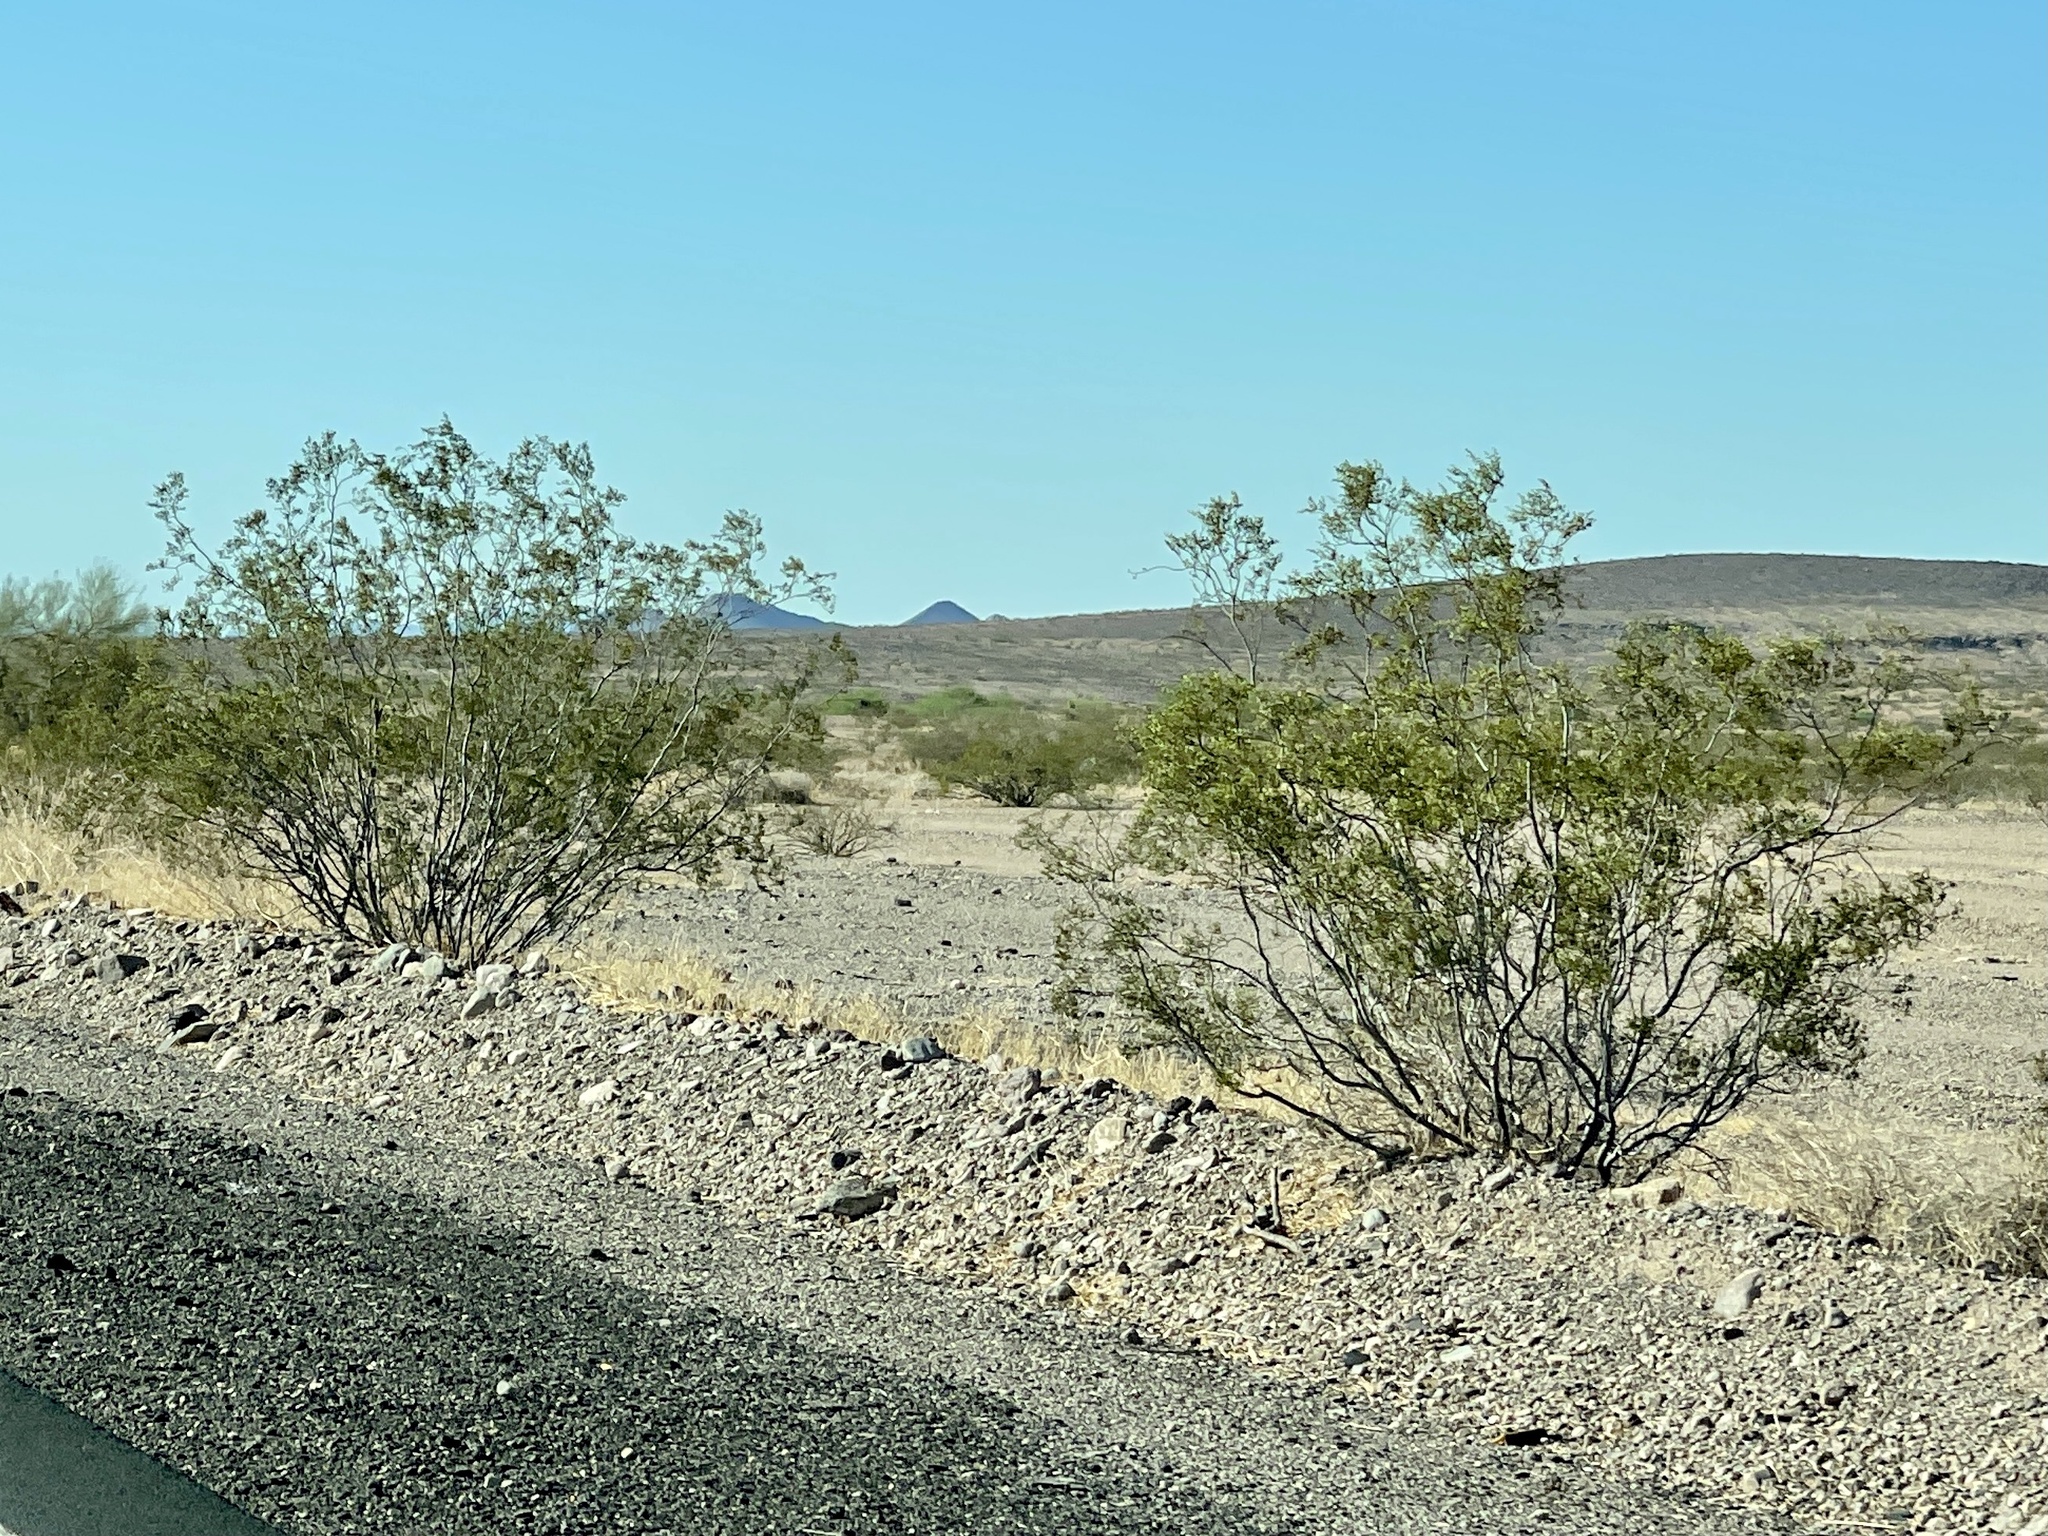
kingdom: Plantae
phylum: Tracheophyta
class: Magnoliopsida
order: Zygophyllales
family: Zygophyllaceae
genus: Larrea
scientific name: Larrea tridentata
